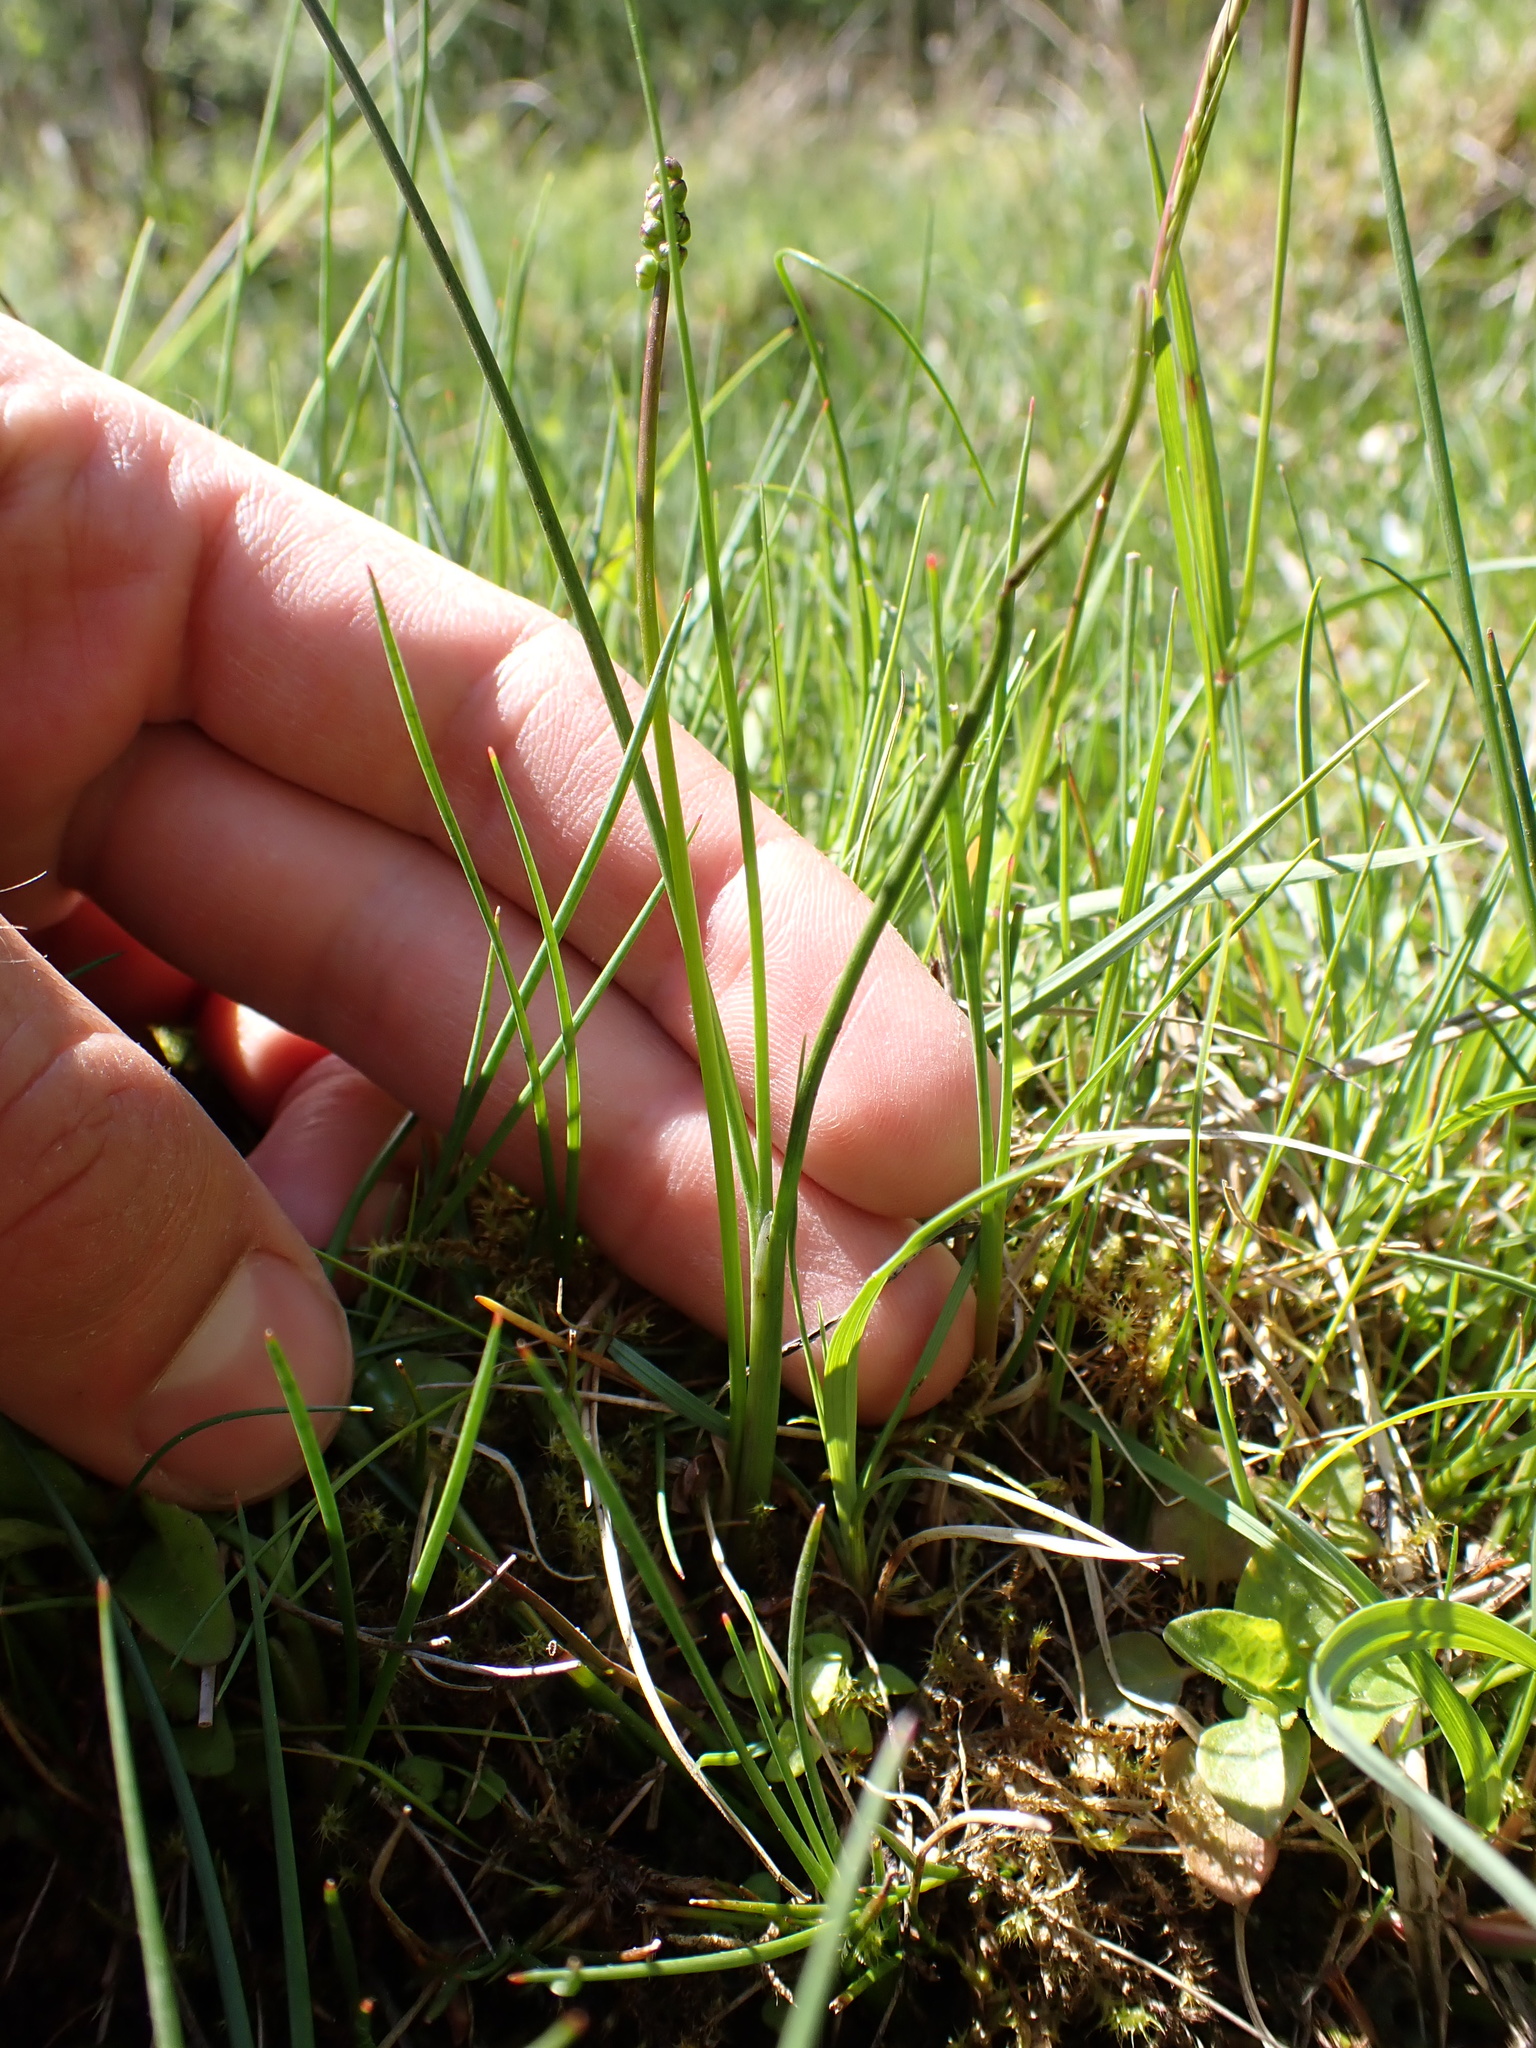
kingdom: Plantae
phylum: Tracheophyta
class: Liliopsida
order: Alismatales
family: Juncaginaceae
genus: Triglochin
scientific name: Triglochin palustris
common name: Marsh arrowgrass
